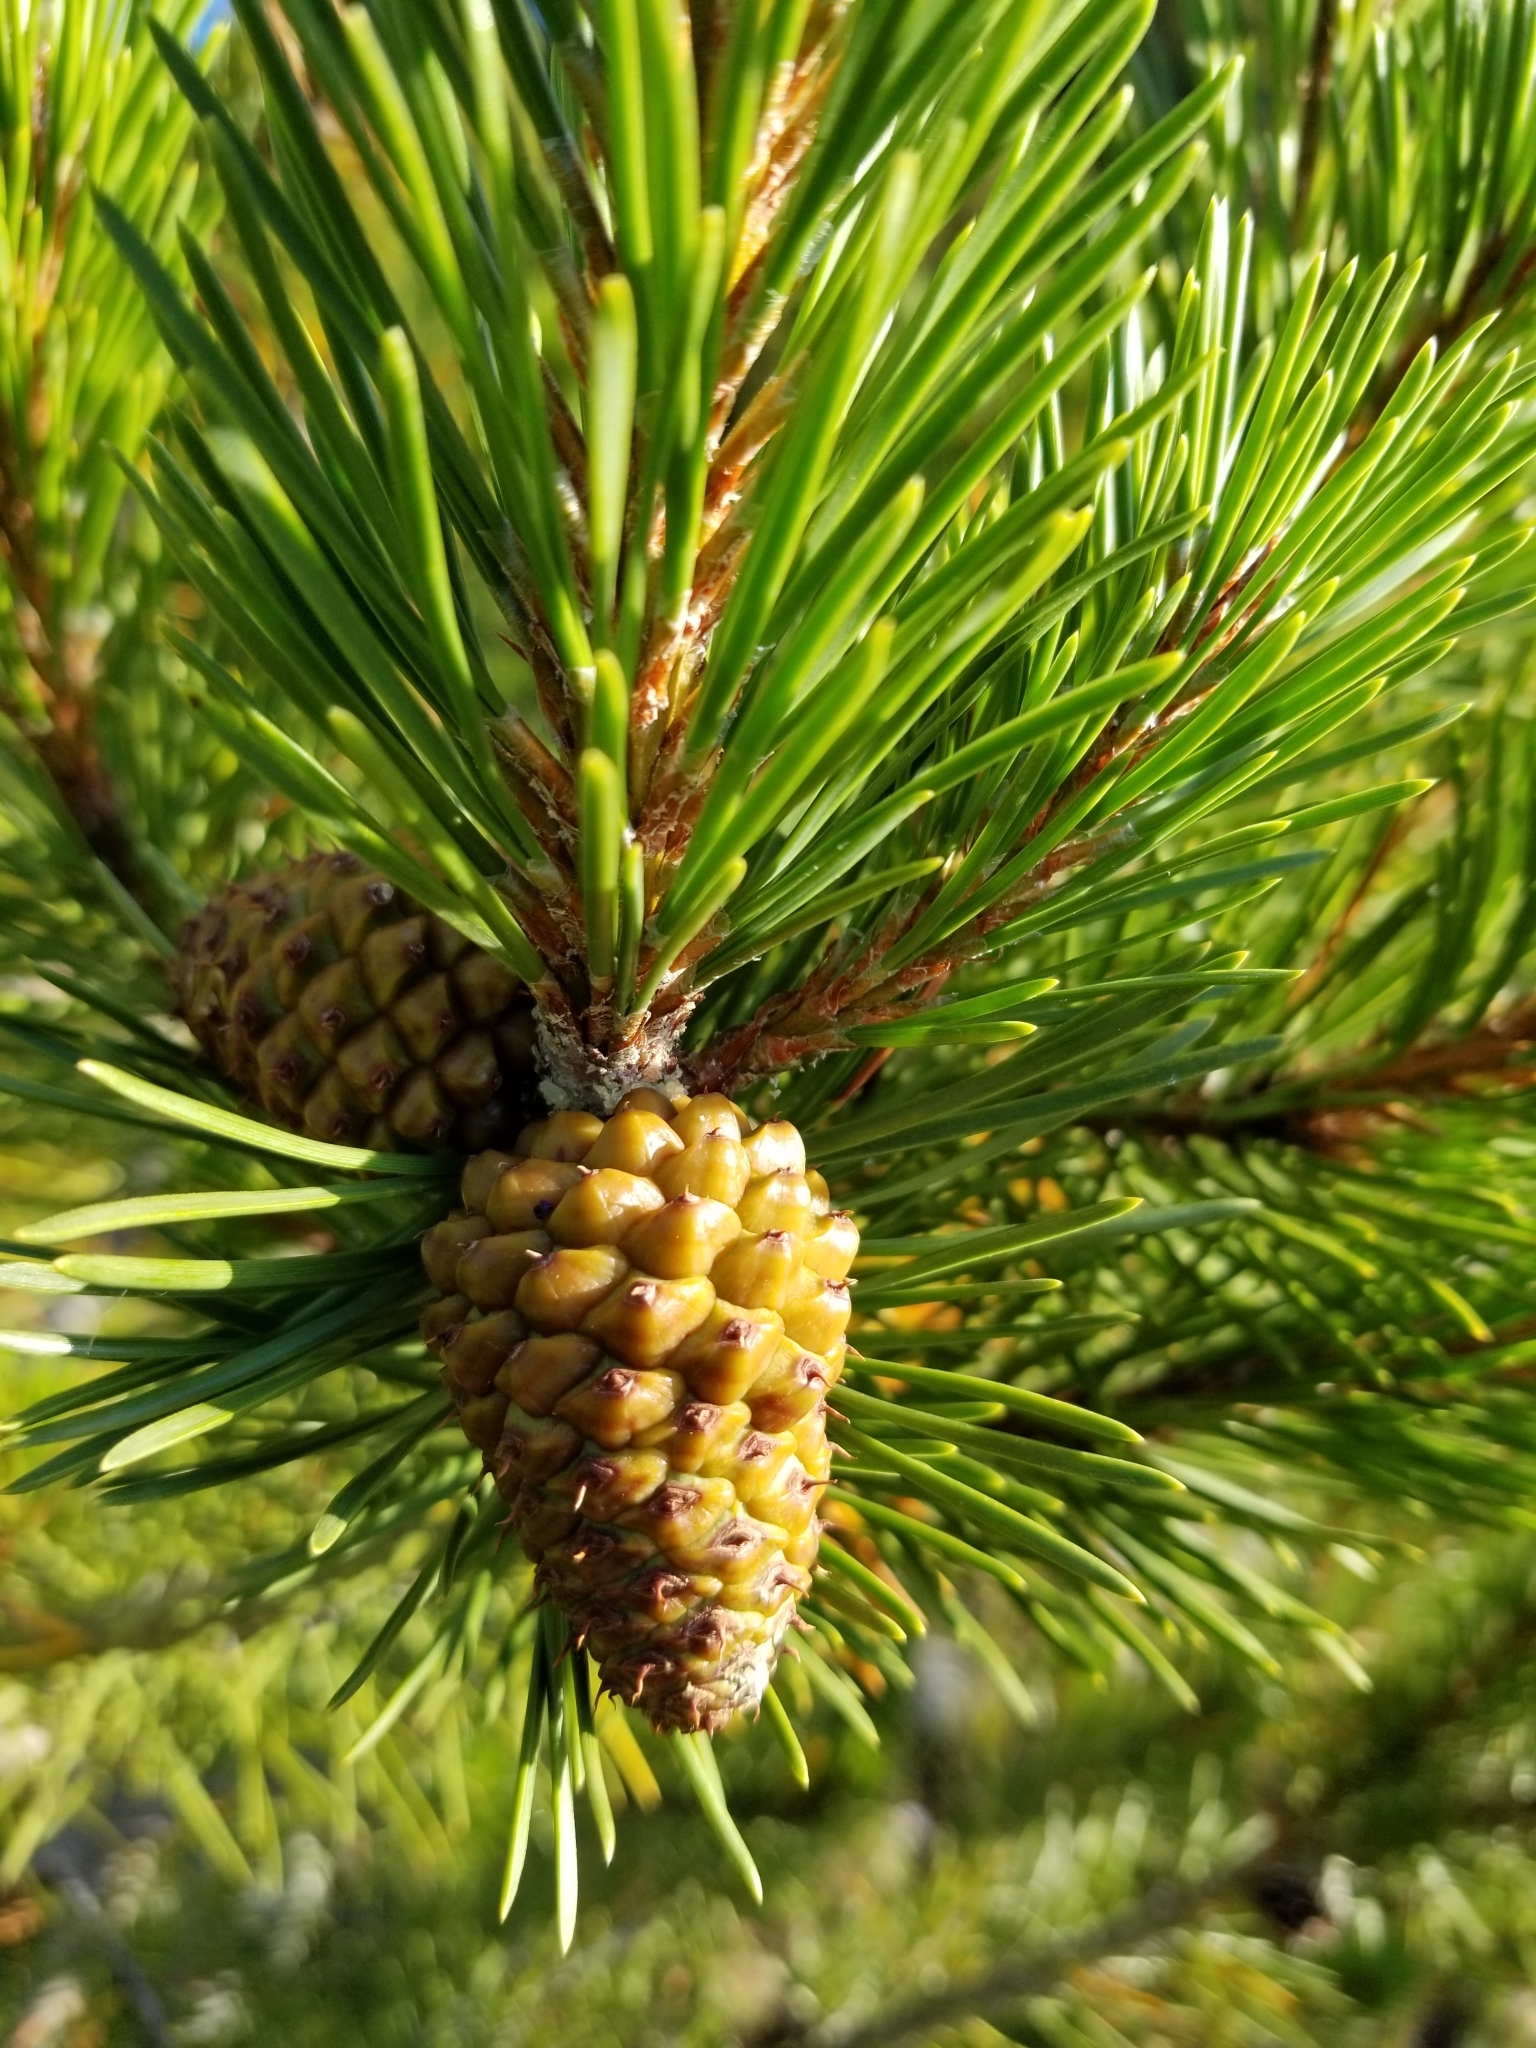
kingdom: Plantae
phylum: Tracheophyta
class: Pinopsida
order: Pinales
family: Pinaceae
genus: Pinus
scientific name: Pinus contorta
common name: Lodgepole pine
